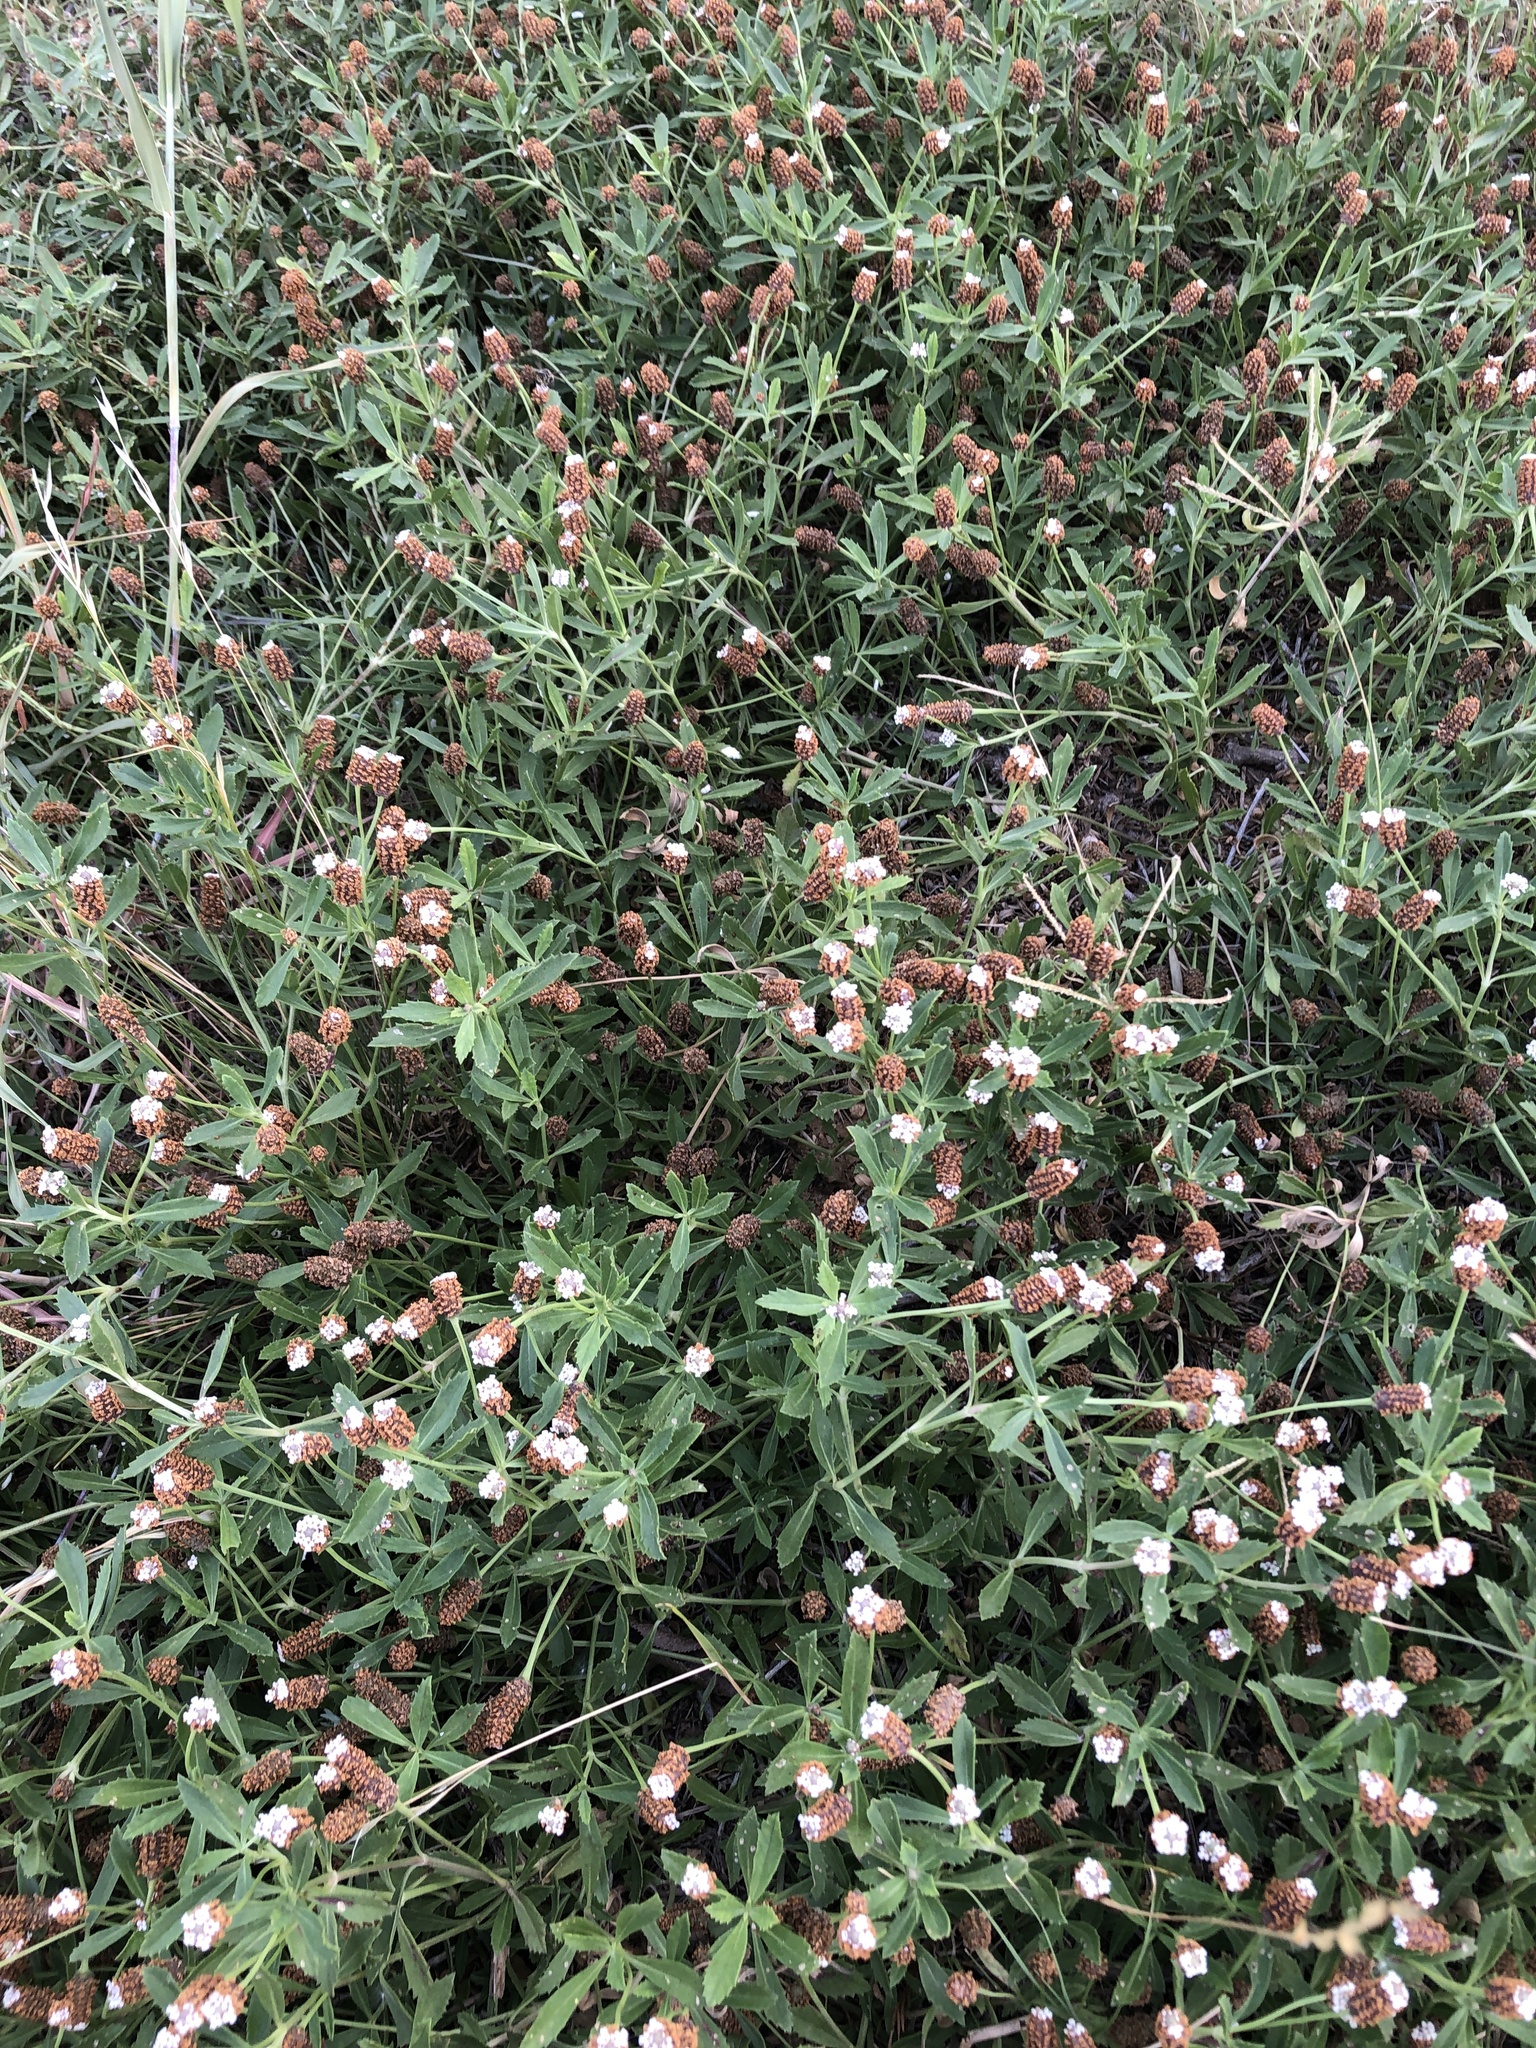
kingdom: Plantae
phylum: Tracheophyta
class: Magnoliopsida
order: Lamiales
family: Verbenaceae
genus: Phyla
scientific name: Phyla nodiflora
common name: Frogfruit
